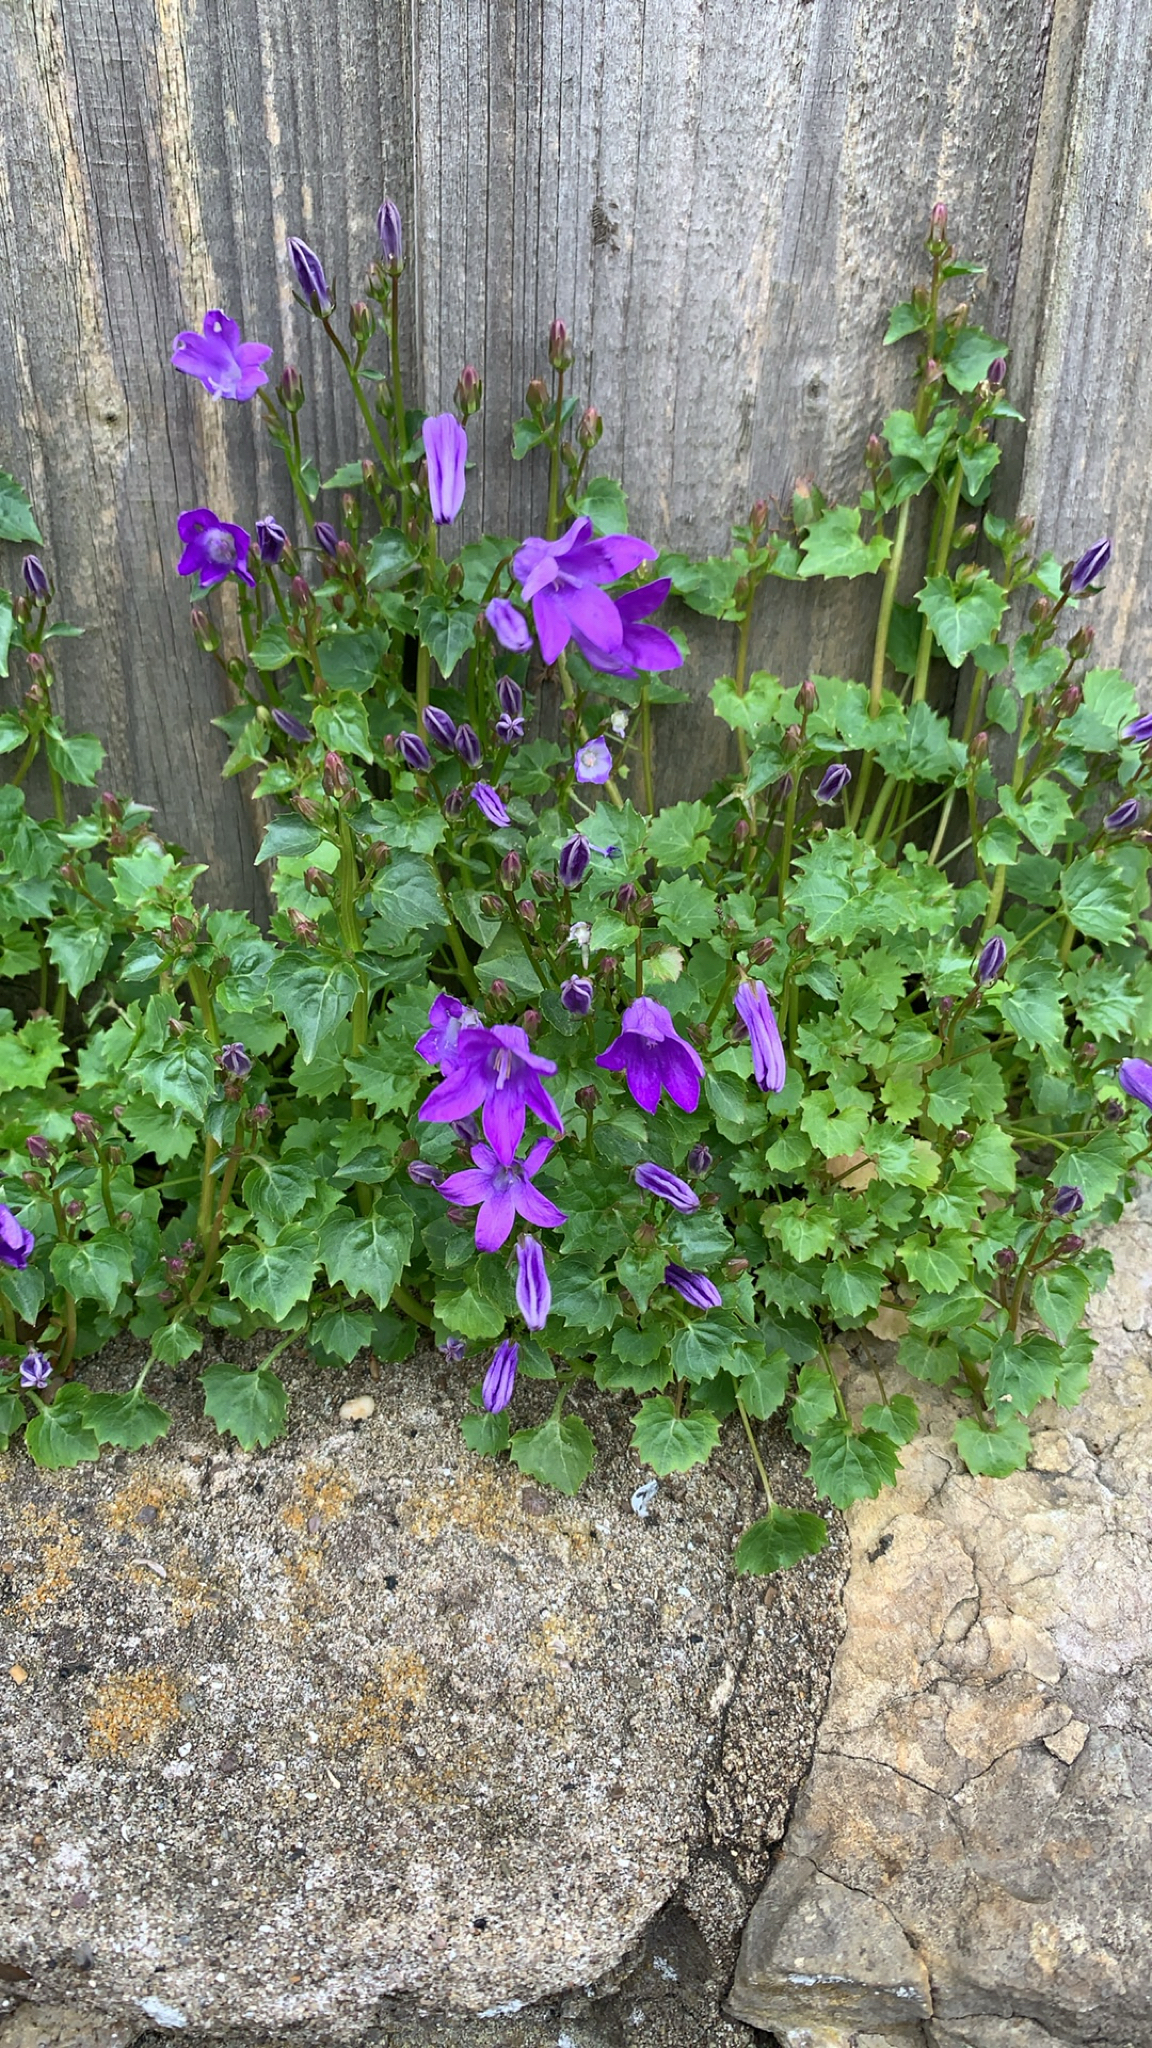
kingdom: Plantae
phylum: Tracheophyta
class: Magnoliopsida
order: Asterales
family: Campanulaceae
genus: Campanula
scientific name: Campanula poscharskyana
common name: Trailing bellflower
